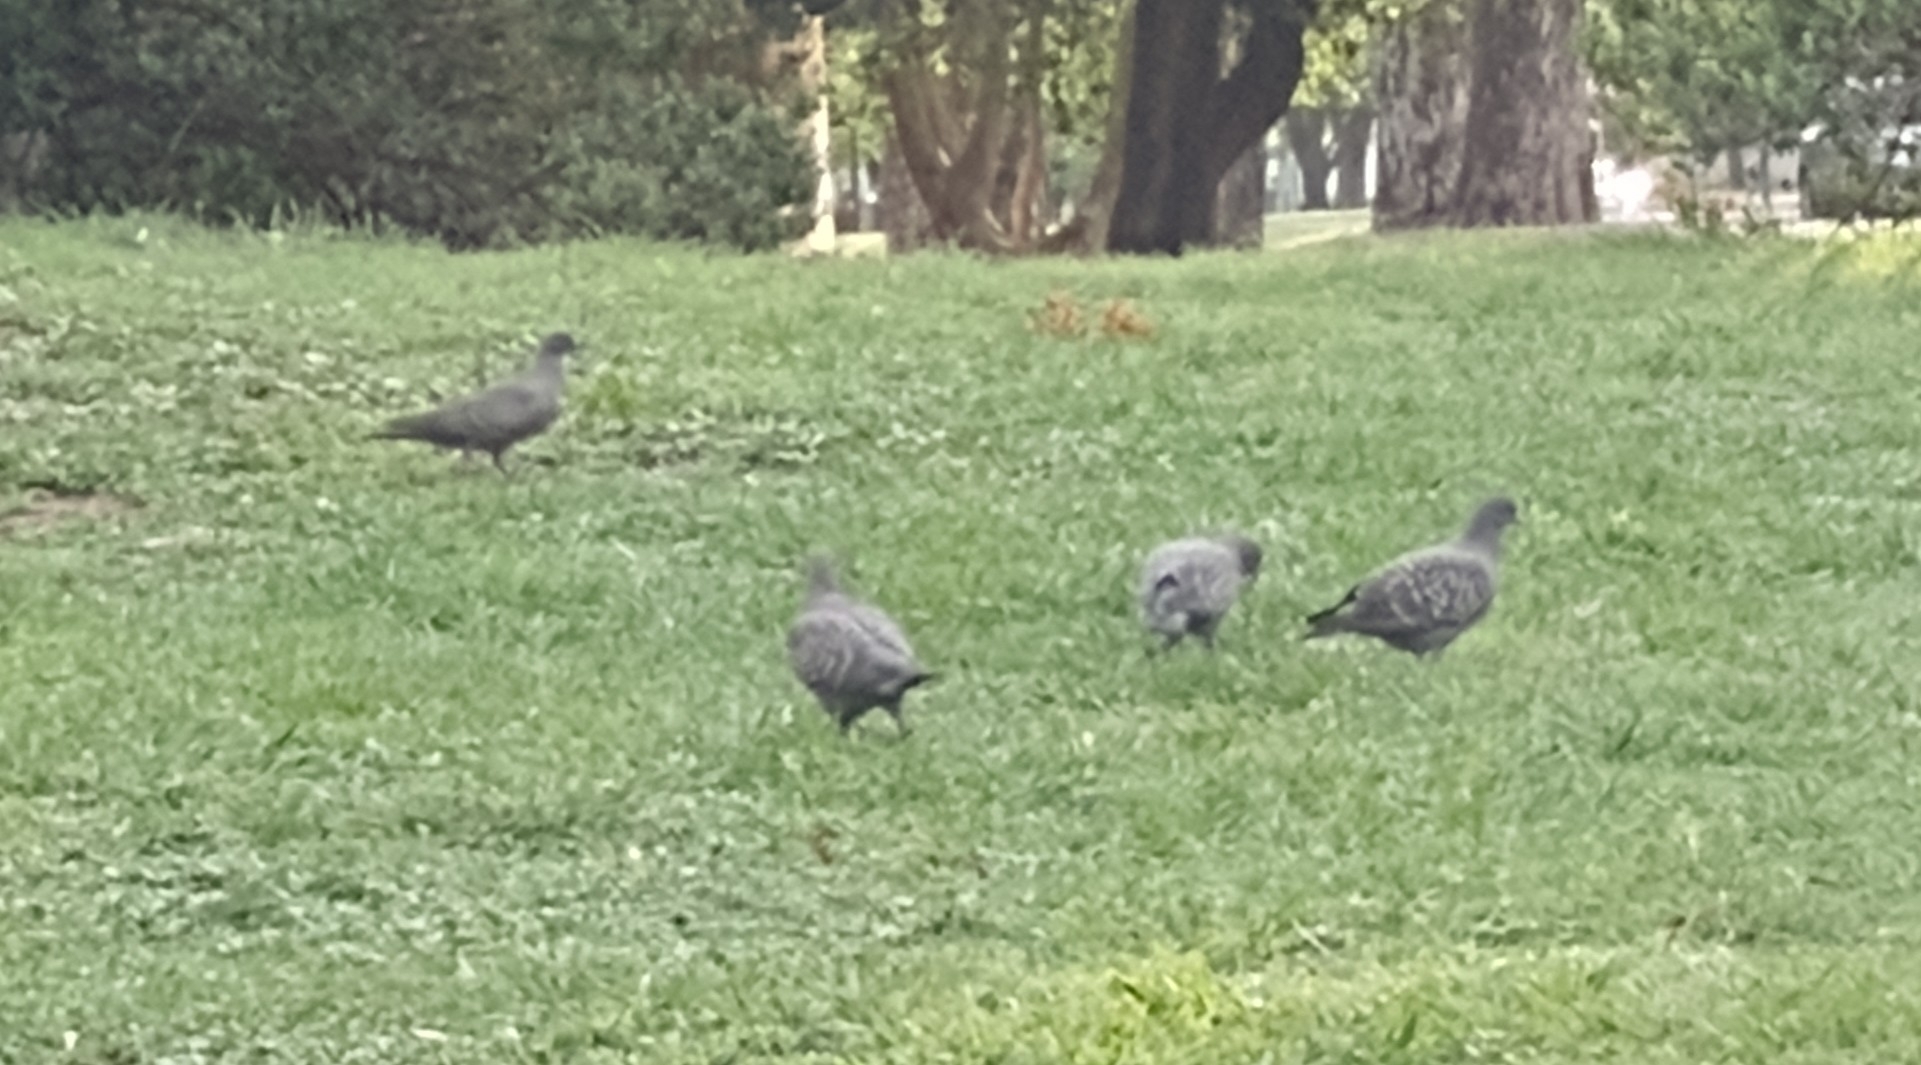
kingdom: Animalia
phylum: Chordata
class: Aves
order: Columbiformes
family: Columbidae
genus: Patagioenas
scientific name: Patagioenas maculosa
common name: Spot-winged pigeon
